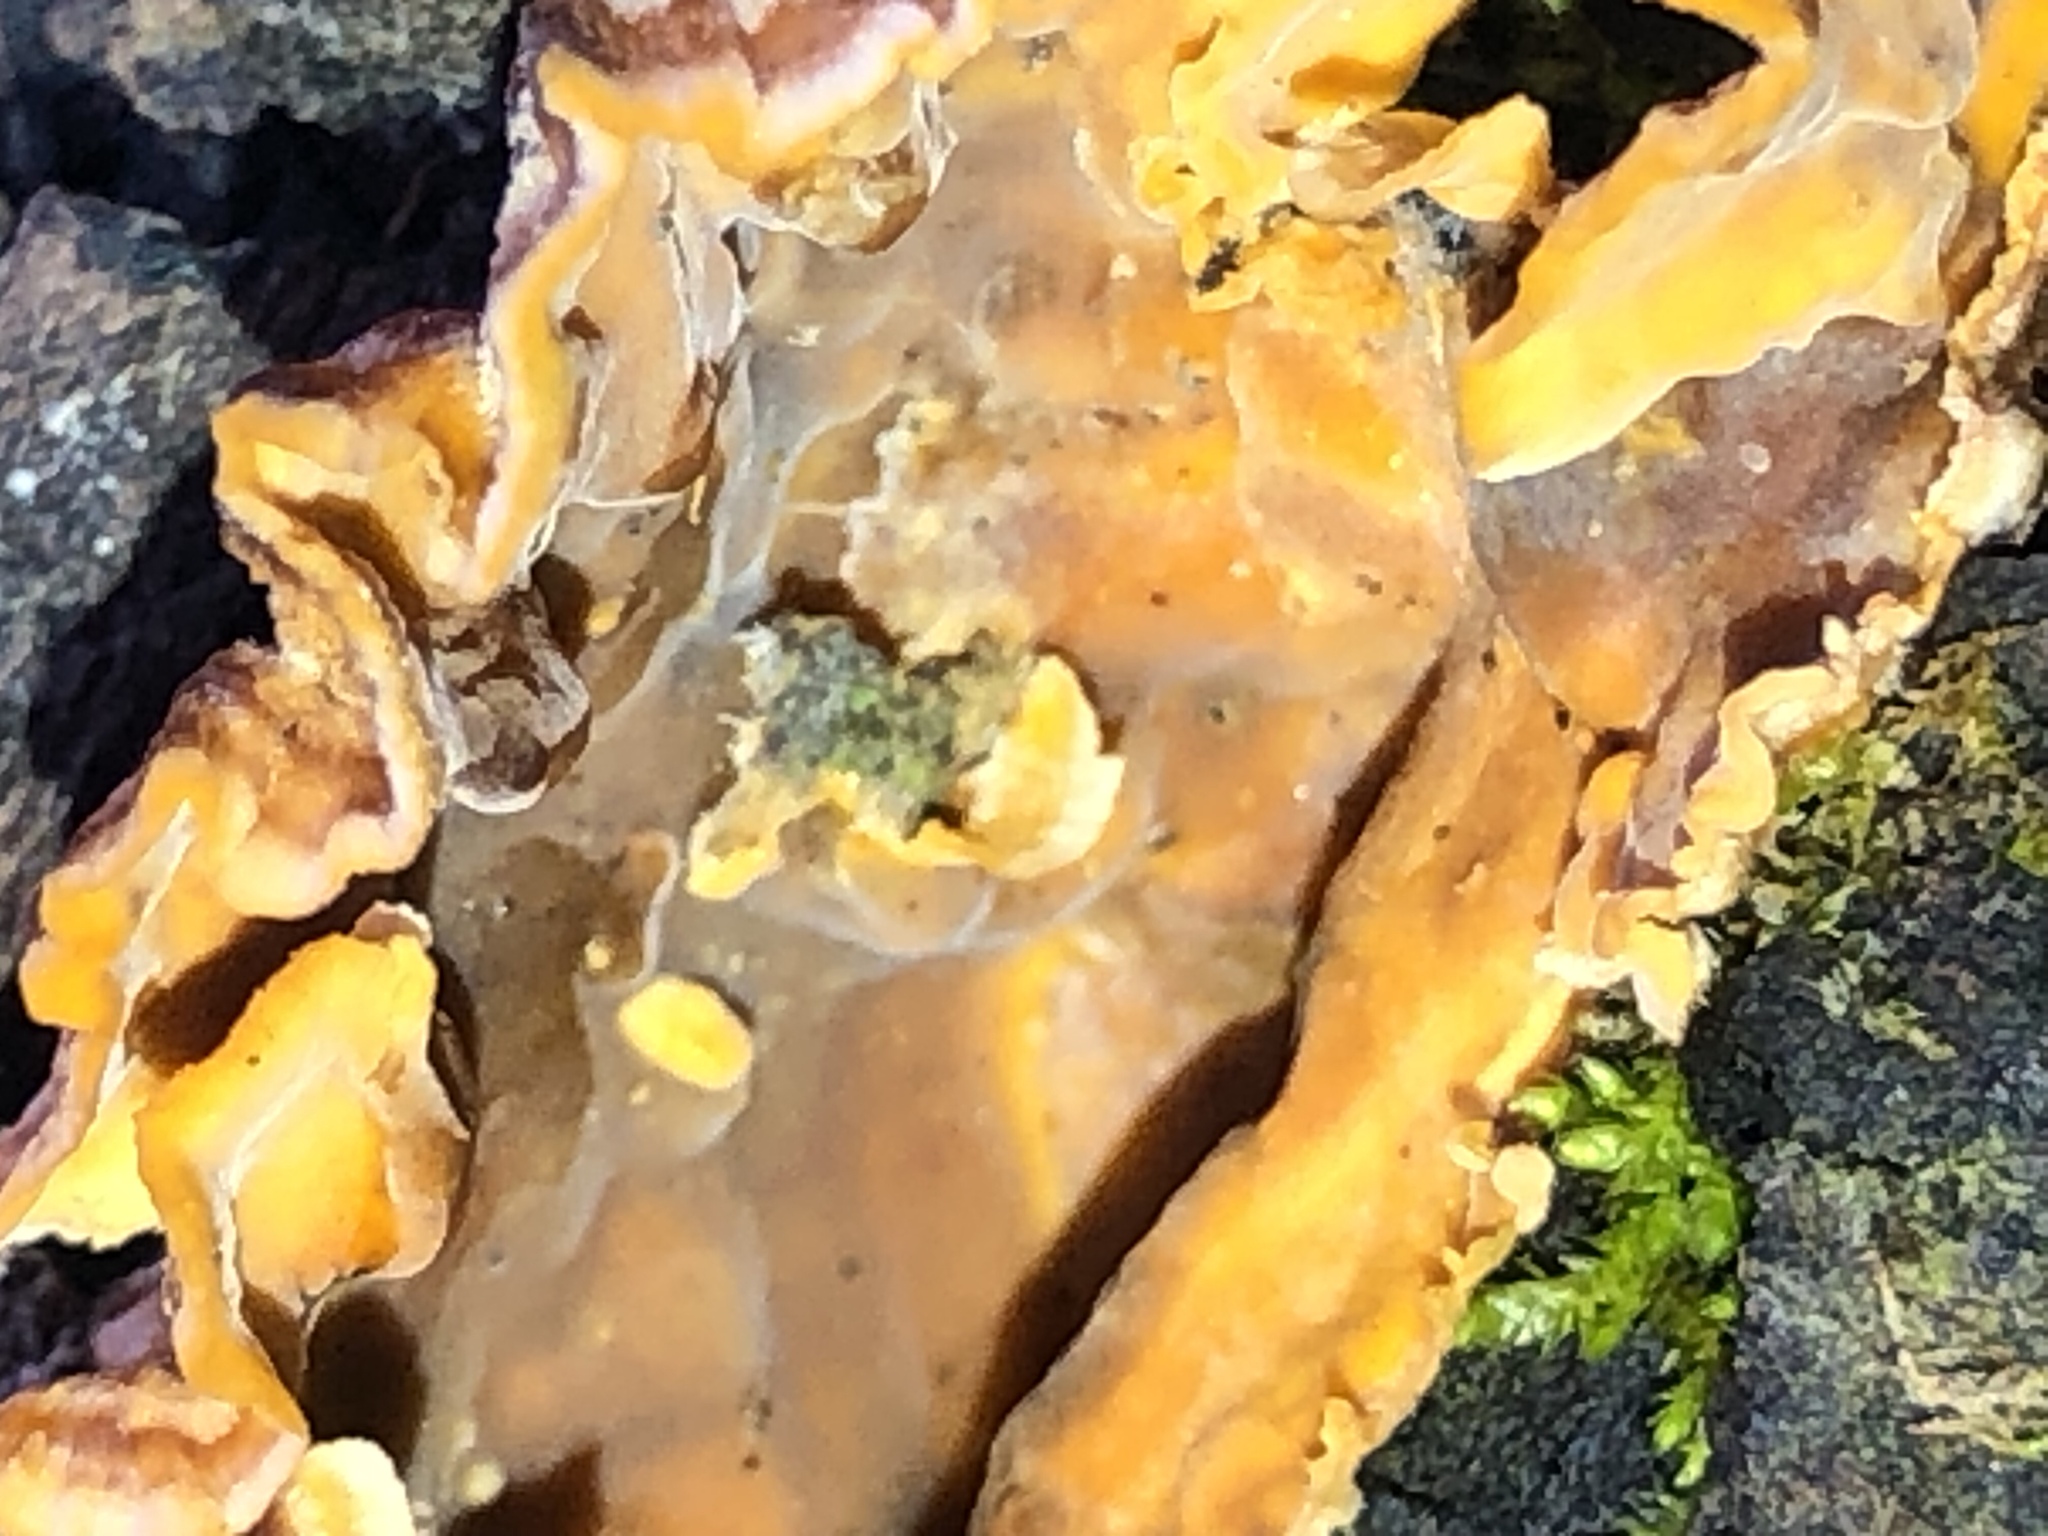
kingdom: Fungi
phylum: Basidiomycota
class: Agaricomycetes
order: Russulales
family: Stereaceae
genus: Stereum
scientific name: Stereum complicatum
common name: Crowded parchment
